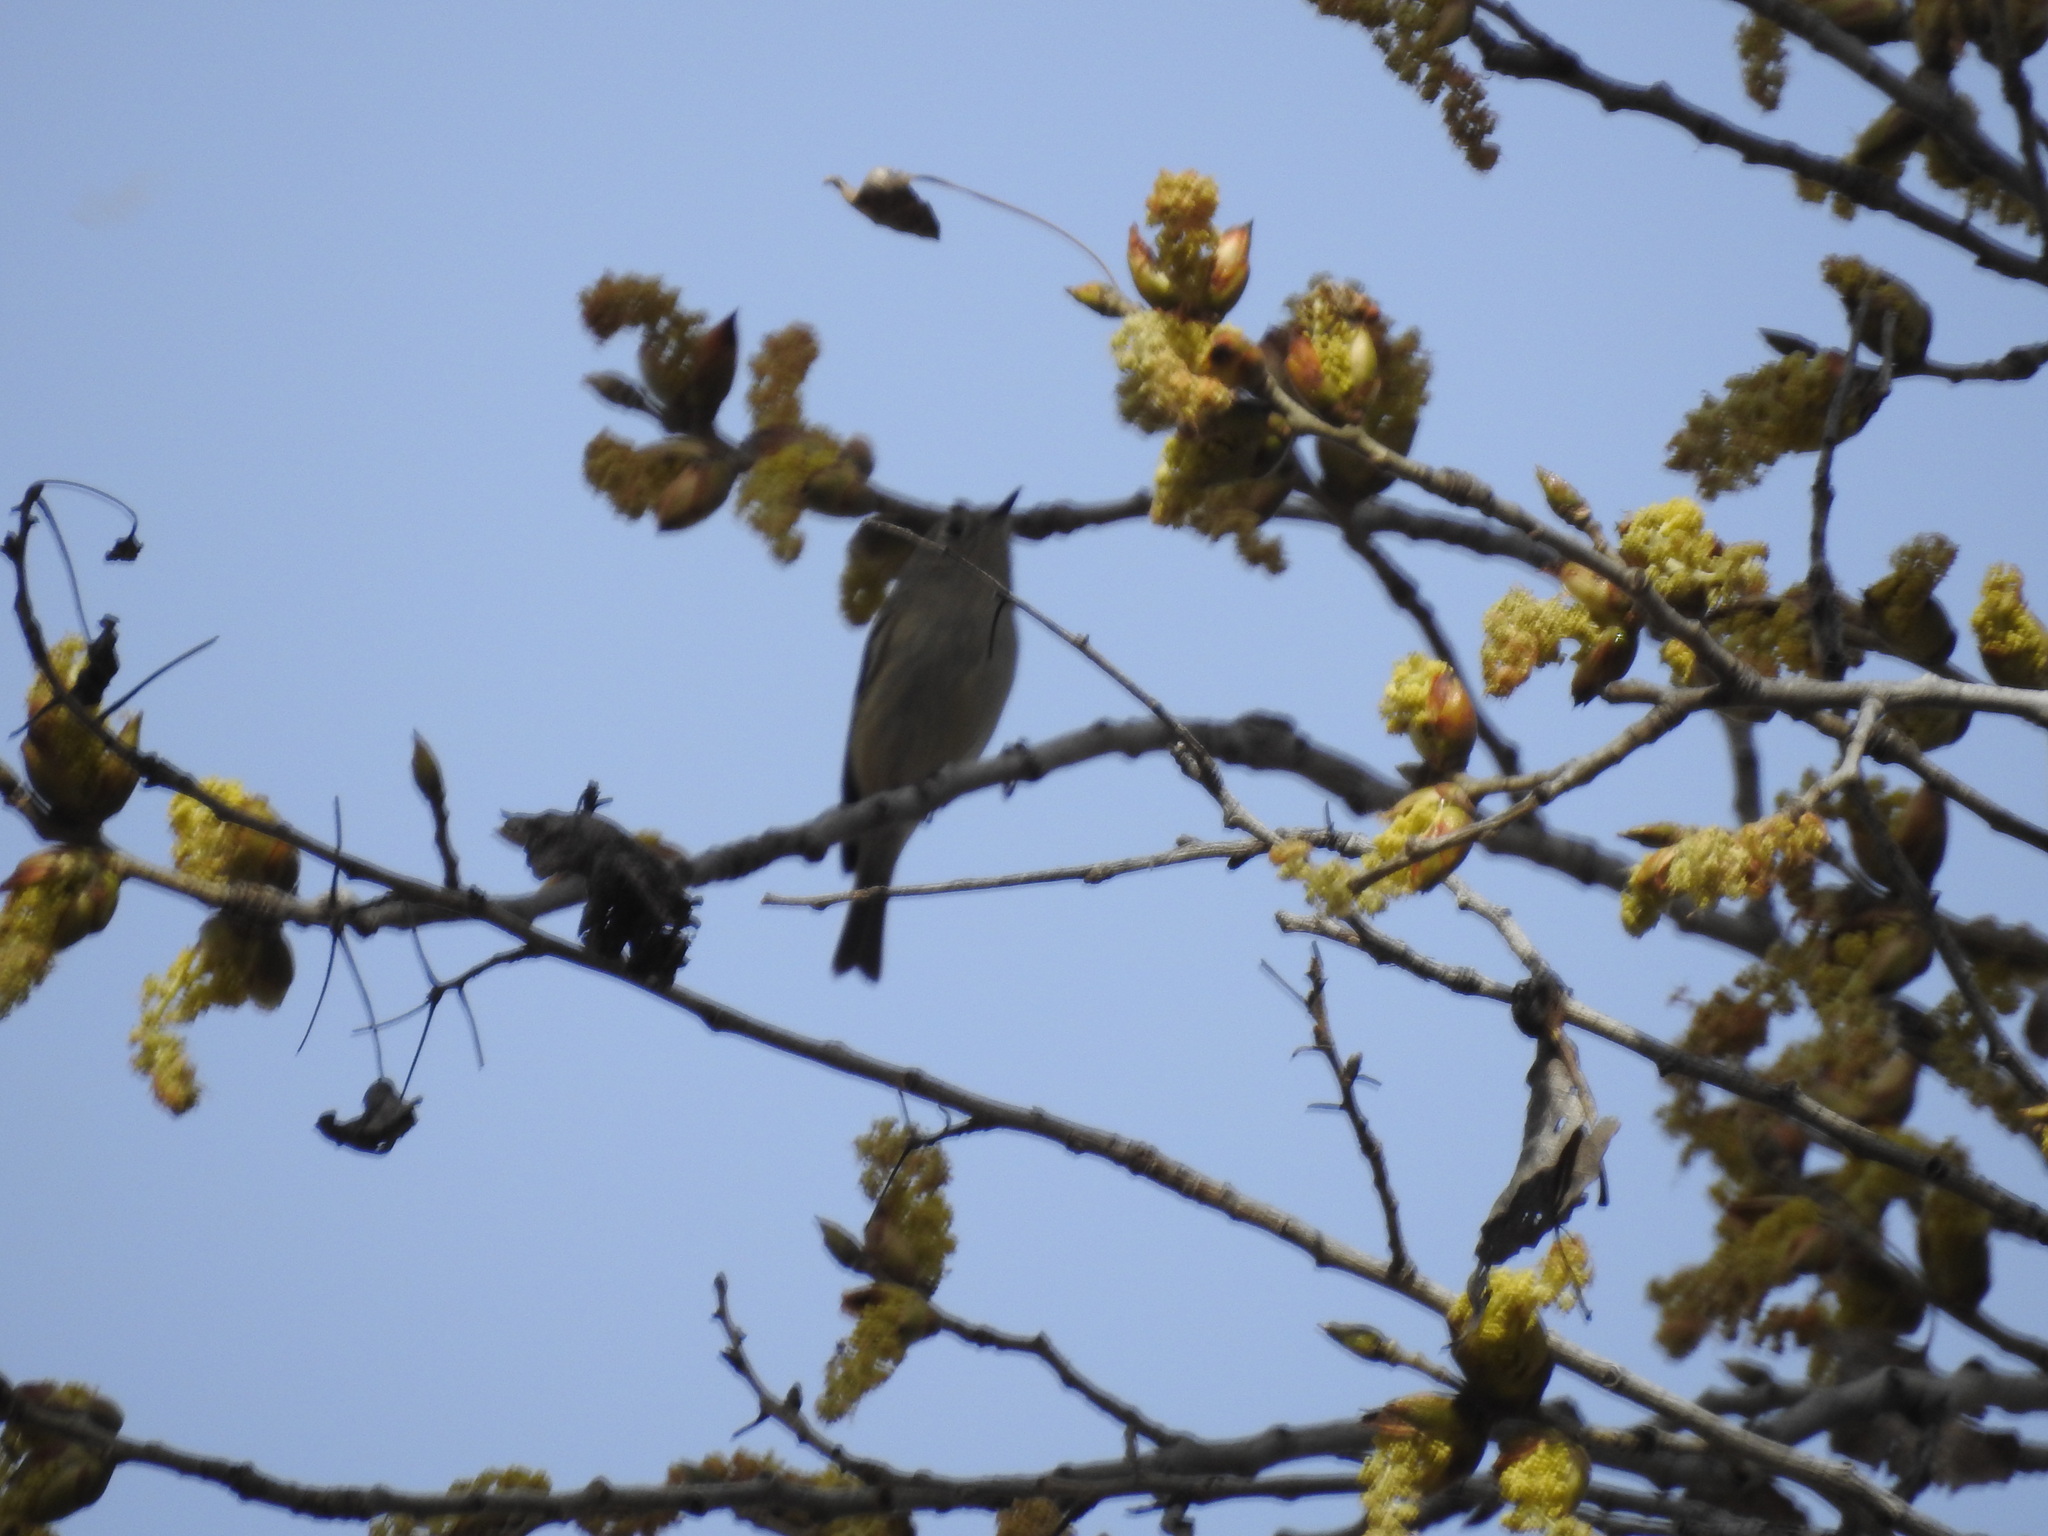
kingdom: Animalia
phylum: Chordata
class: Aves
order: Passeriformes
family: Regulidae
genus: Regulus
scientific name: Regulus calendula
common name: Ruby-crowned kinglet
